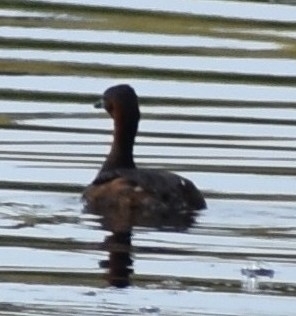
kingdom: Animalia
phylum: Chordata
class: Aves
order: Podicipediformes
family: Podicipedidae
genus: Tachybaptus
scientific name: Tachybaptus ruficollis
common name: Little grebe
